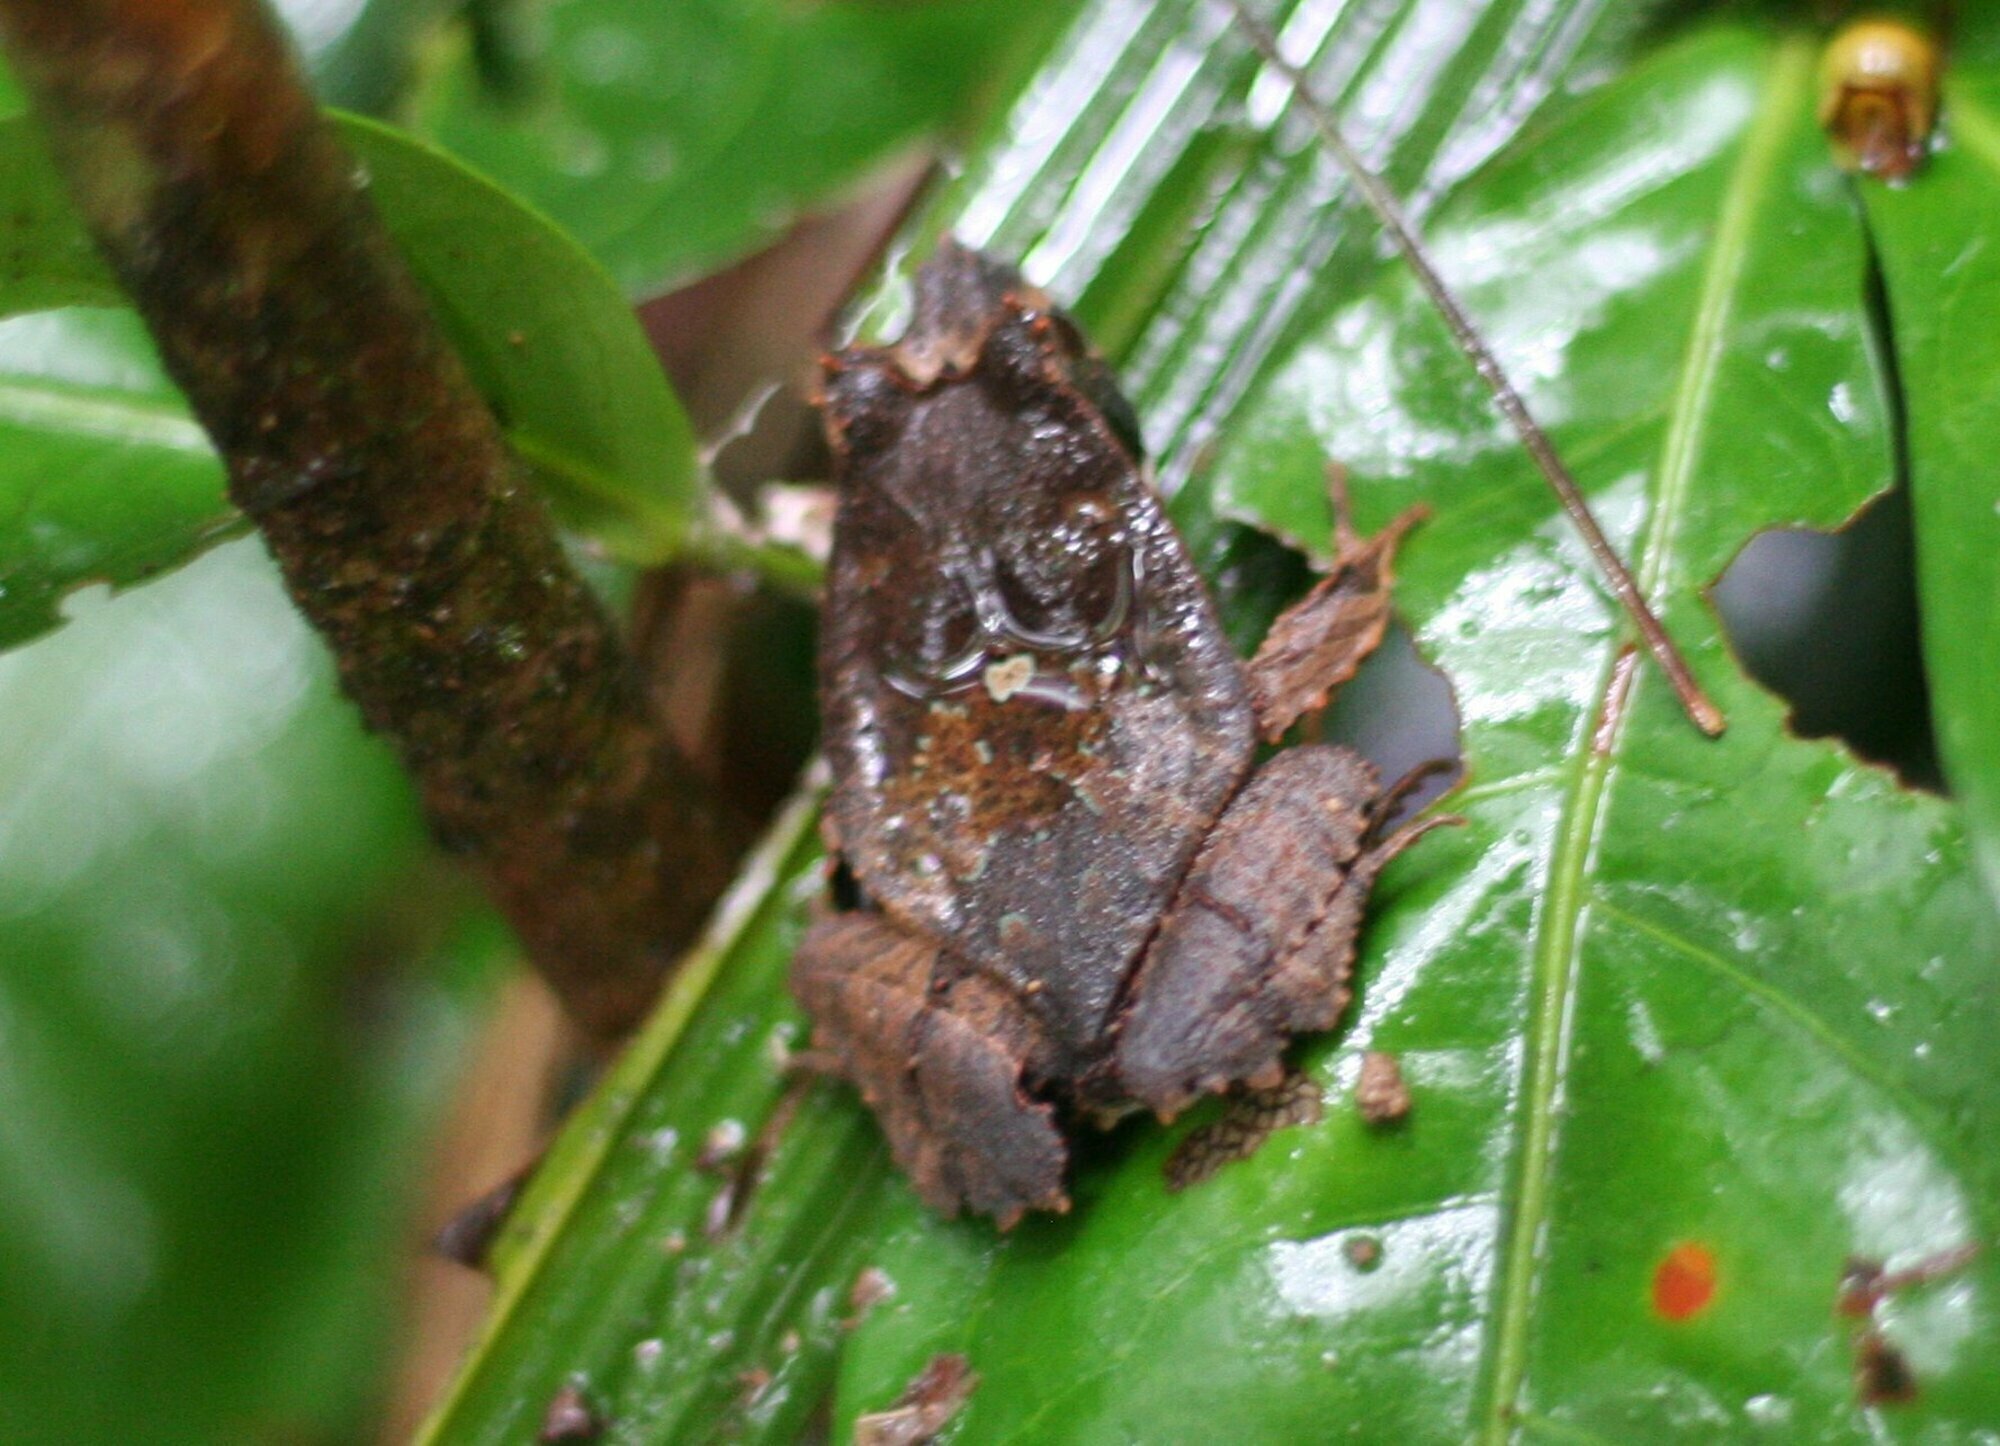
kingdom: Animalia
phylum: Chordata
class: Amphibia
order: Anura
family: Leptodactylidae
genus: Edalorhina
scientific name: Edalorhina perezi
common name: Perez’s snouted frog
